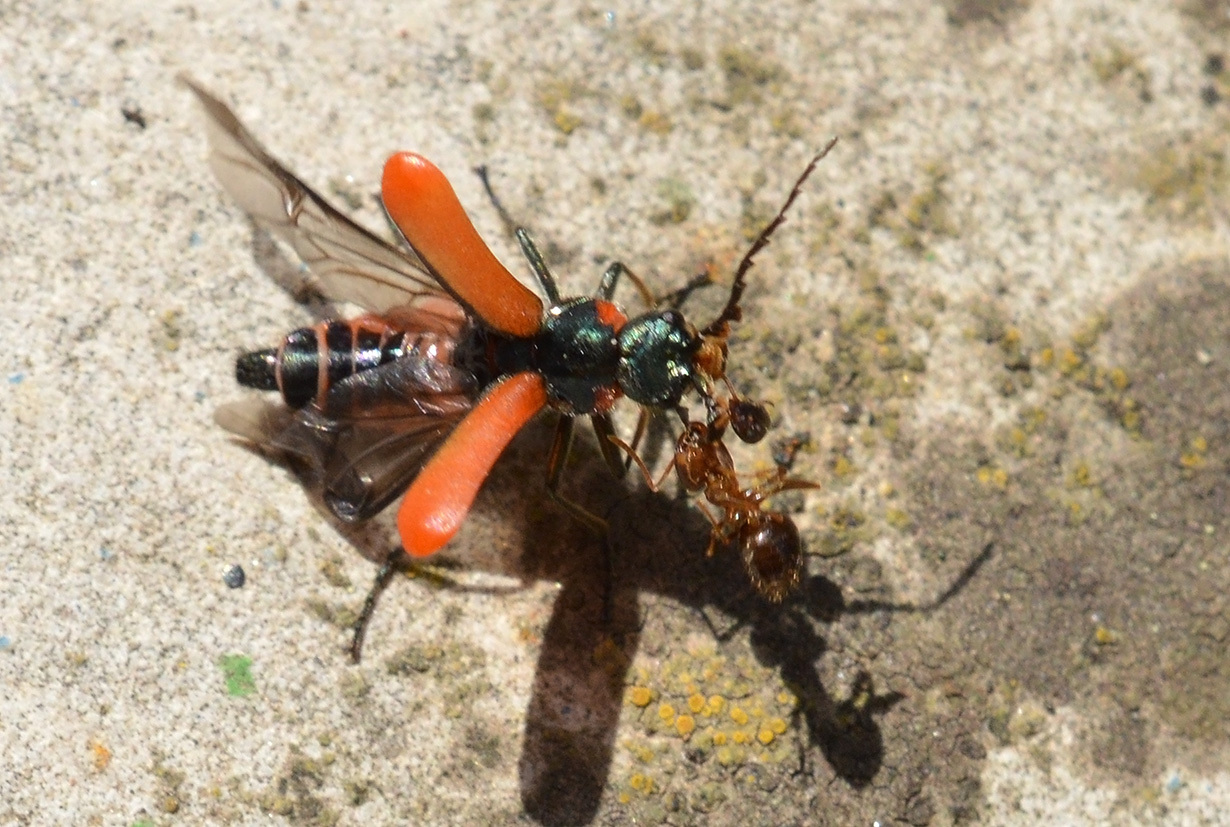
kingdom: Animalia
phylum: Arthropoda
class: Insecta
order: Coleoptera
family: Melyridae
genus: Malachius
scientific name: Malachius
